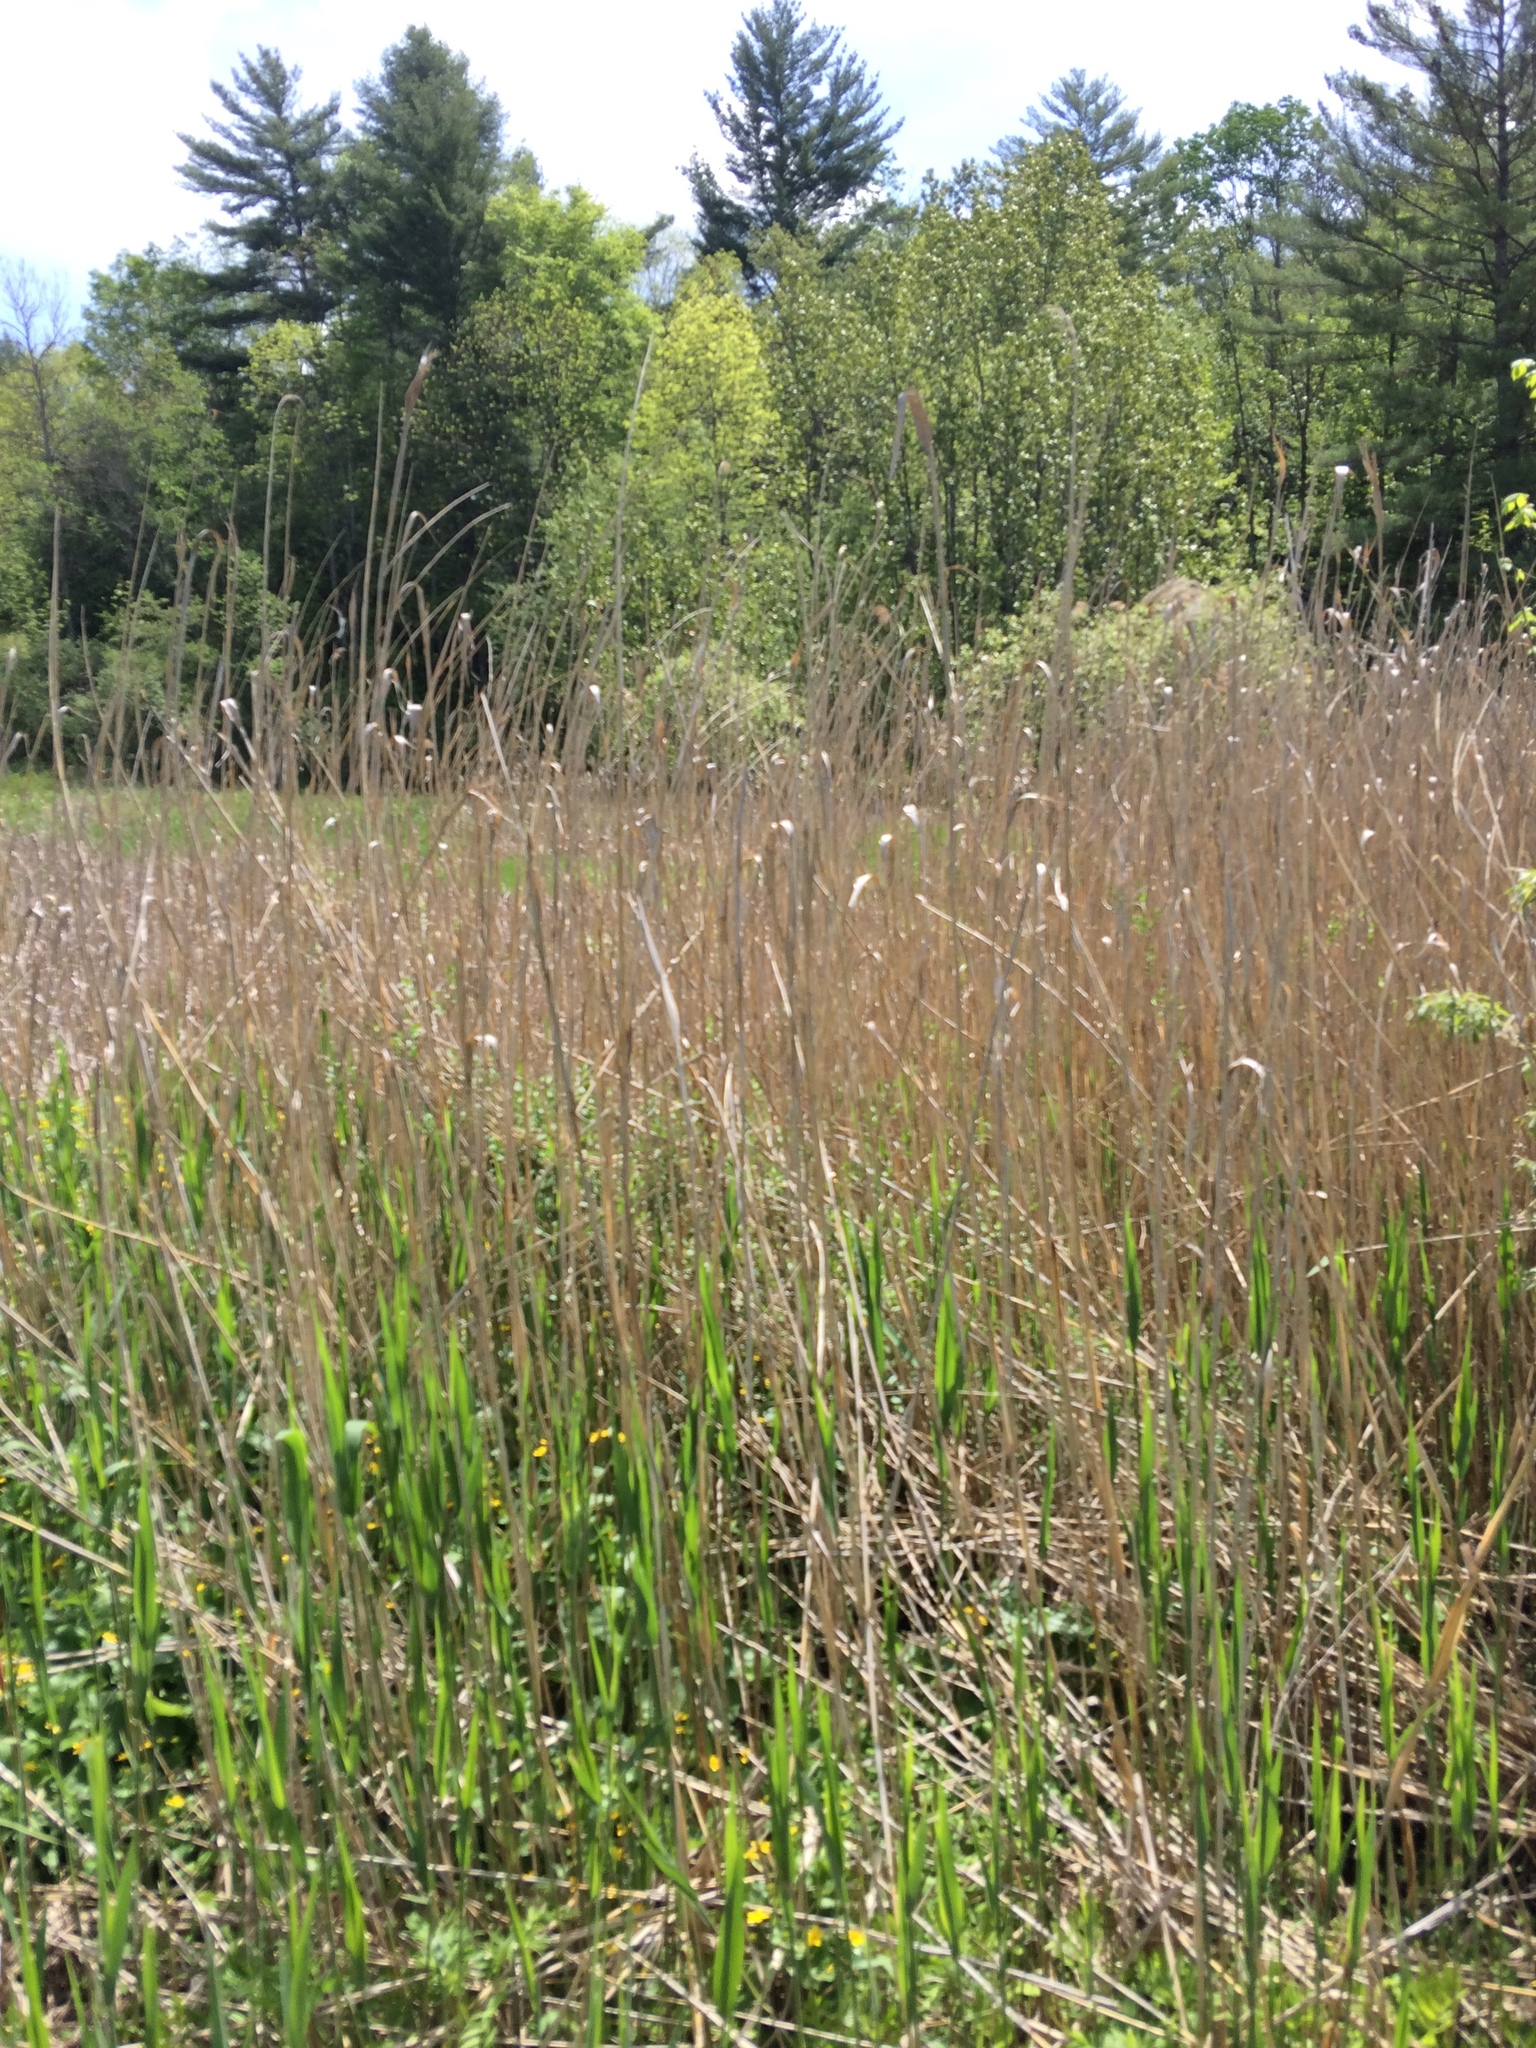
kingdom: Plantae
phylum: Tracheophyta
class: Liliopsida
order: Poales
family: Poaceae
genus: Phragmites
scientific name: Phragmites australis
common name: Common reed
